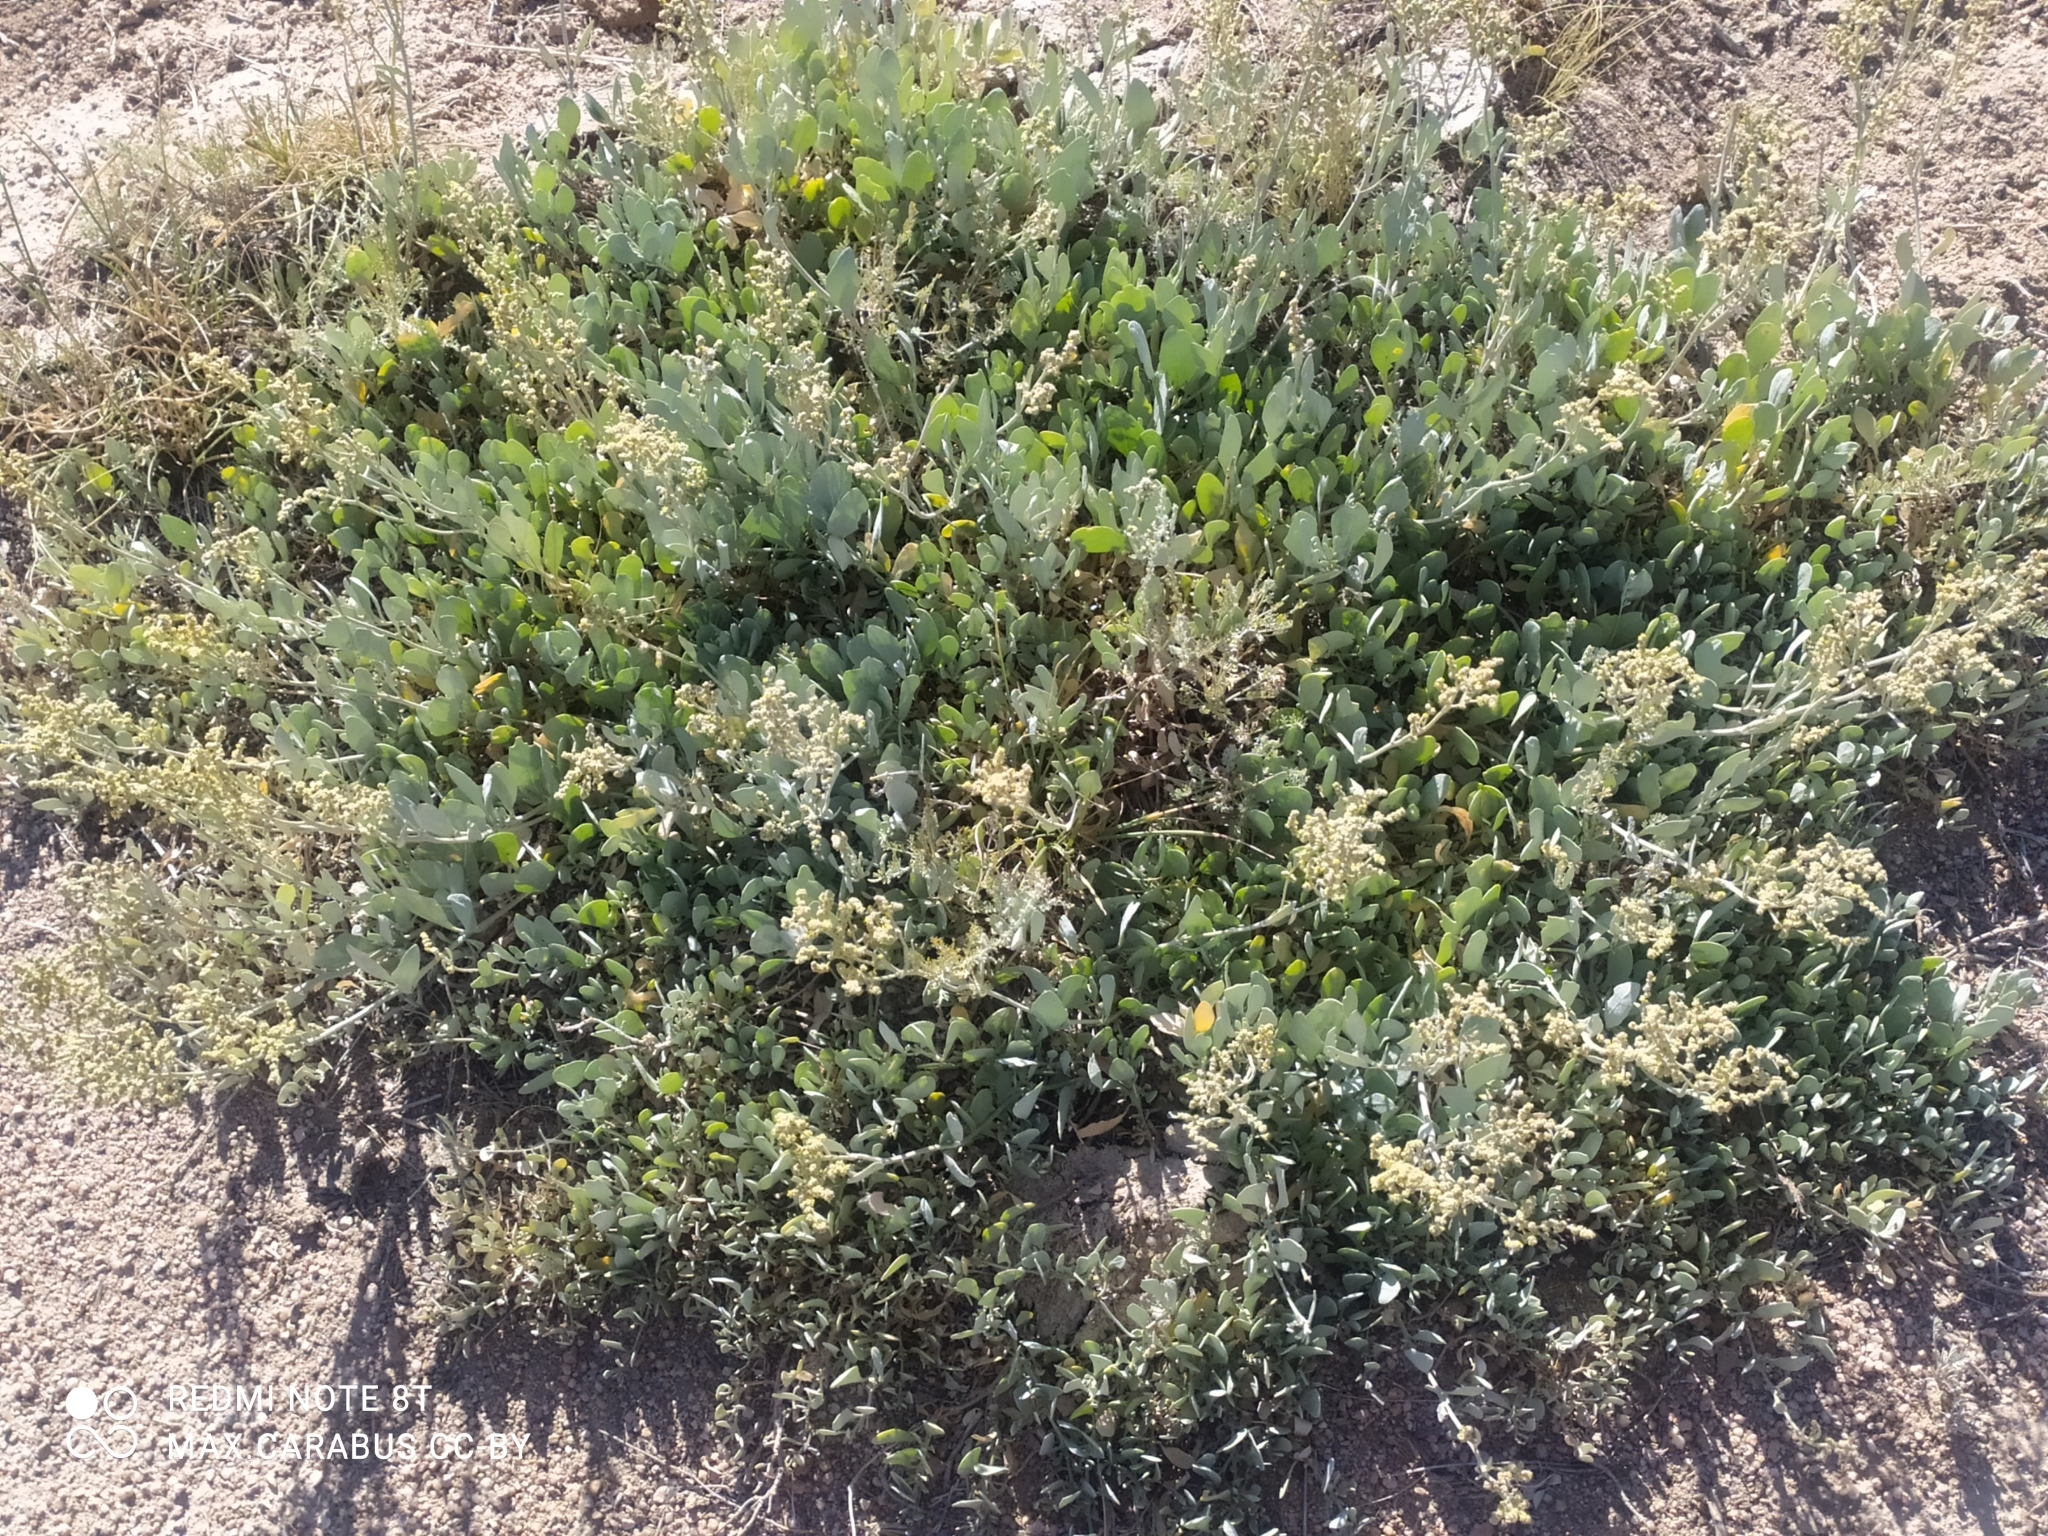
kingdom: Plantae
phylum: Tracheophyta
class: Magnoliopsida
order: Caryophyllales
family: Amaranthaceae
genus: Halimione
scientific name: Halimione verrucifera
